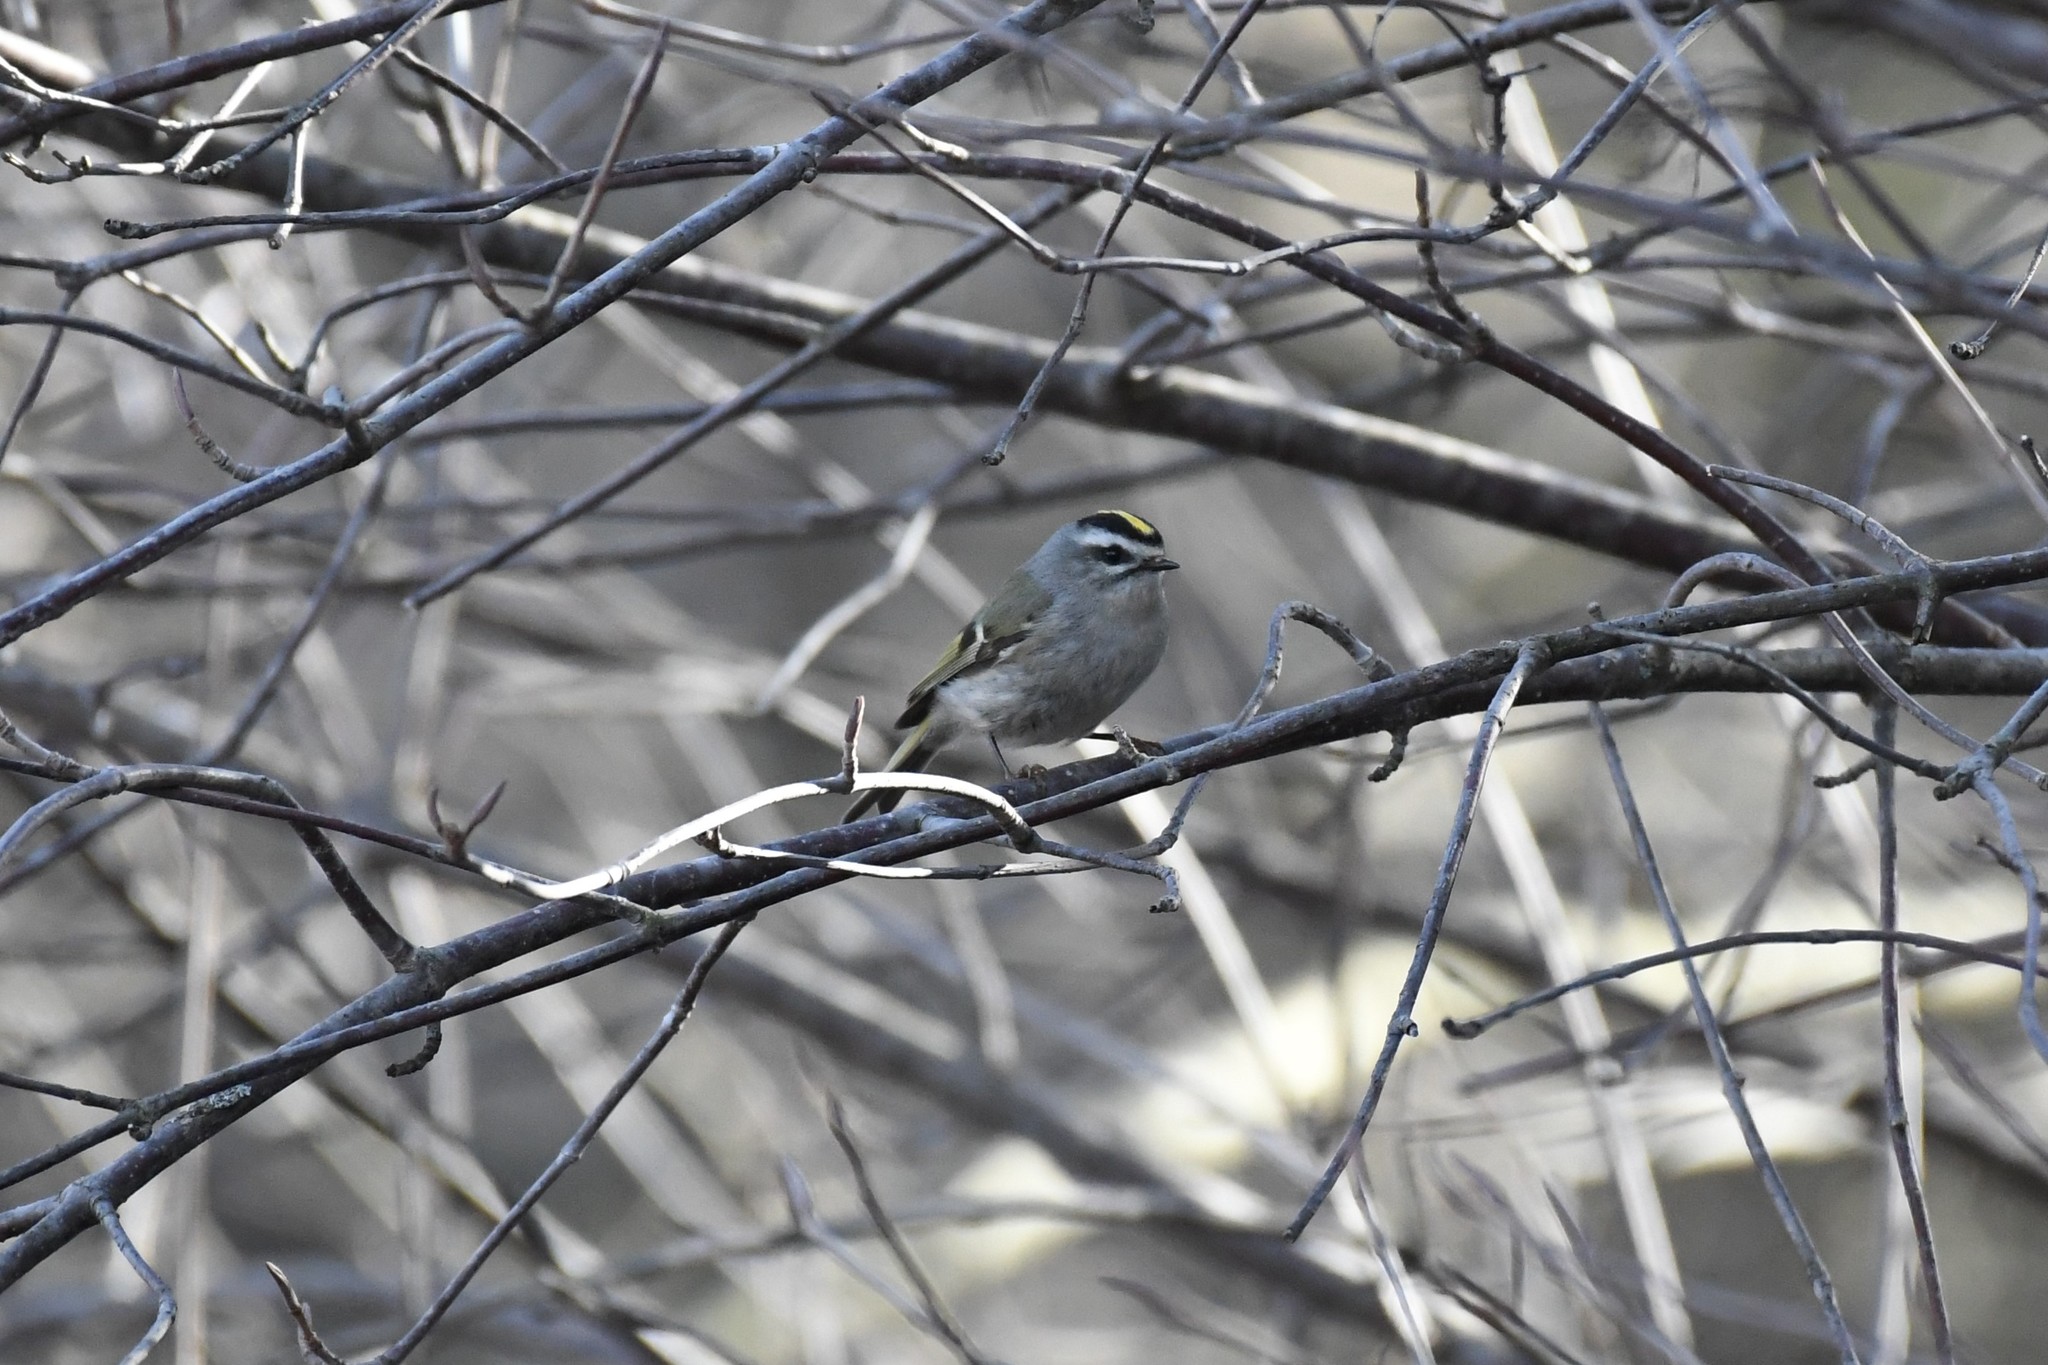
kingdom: Animalia
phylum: Chordata
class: Aves
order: Passeriformes
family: Regulidae
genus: Regulus
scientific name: Regulus satrapa
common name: Golden-crowned kinglet
